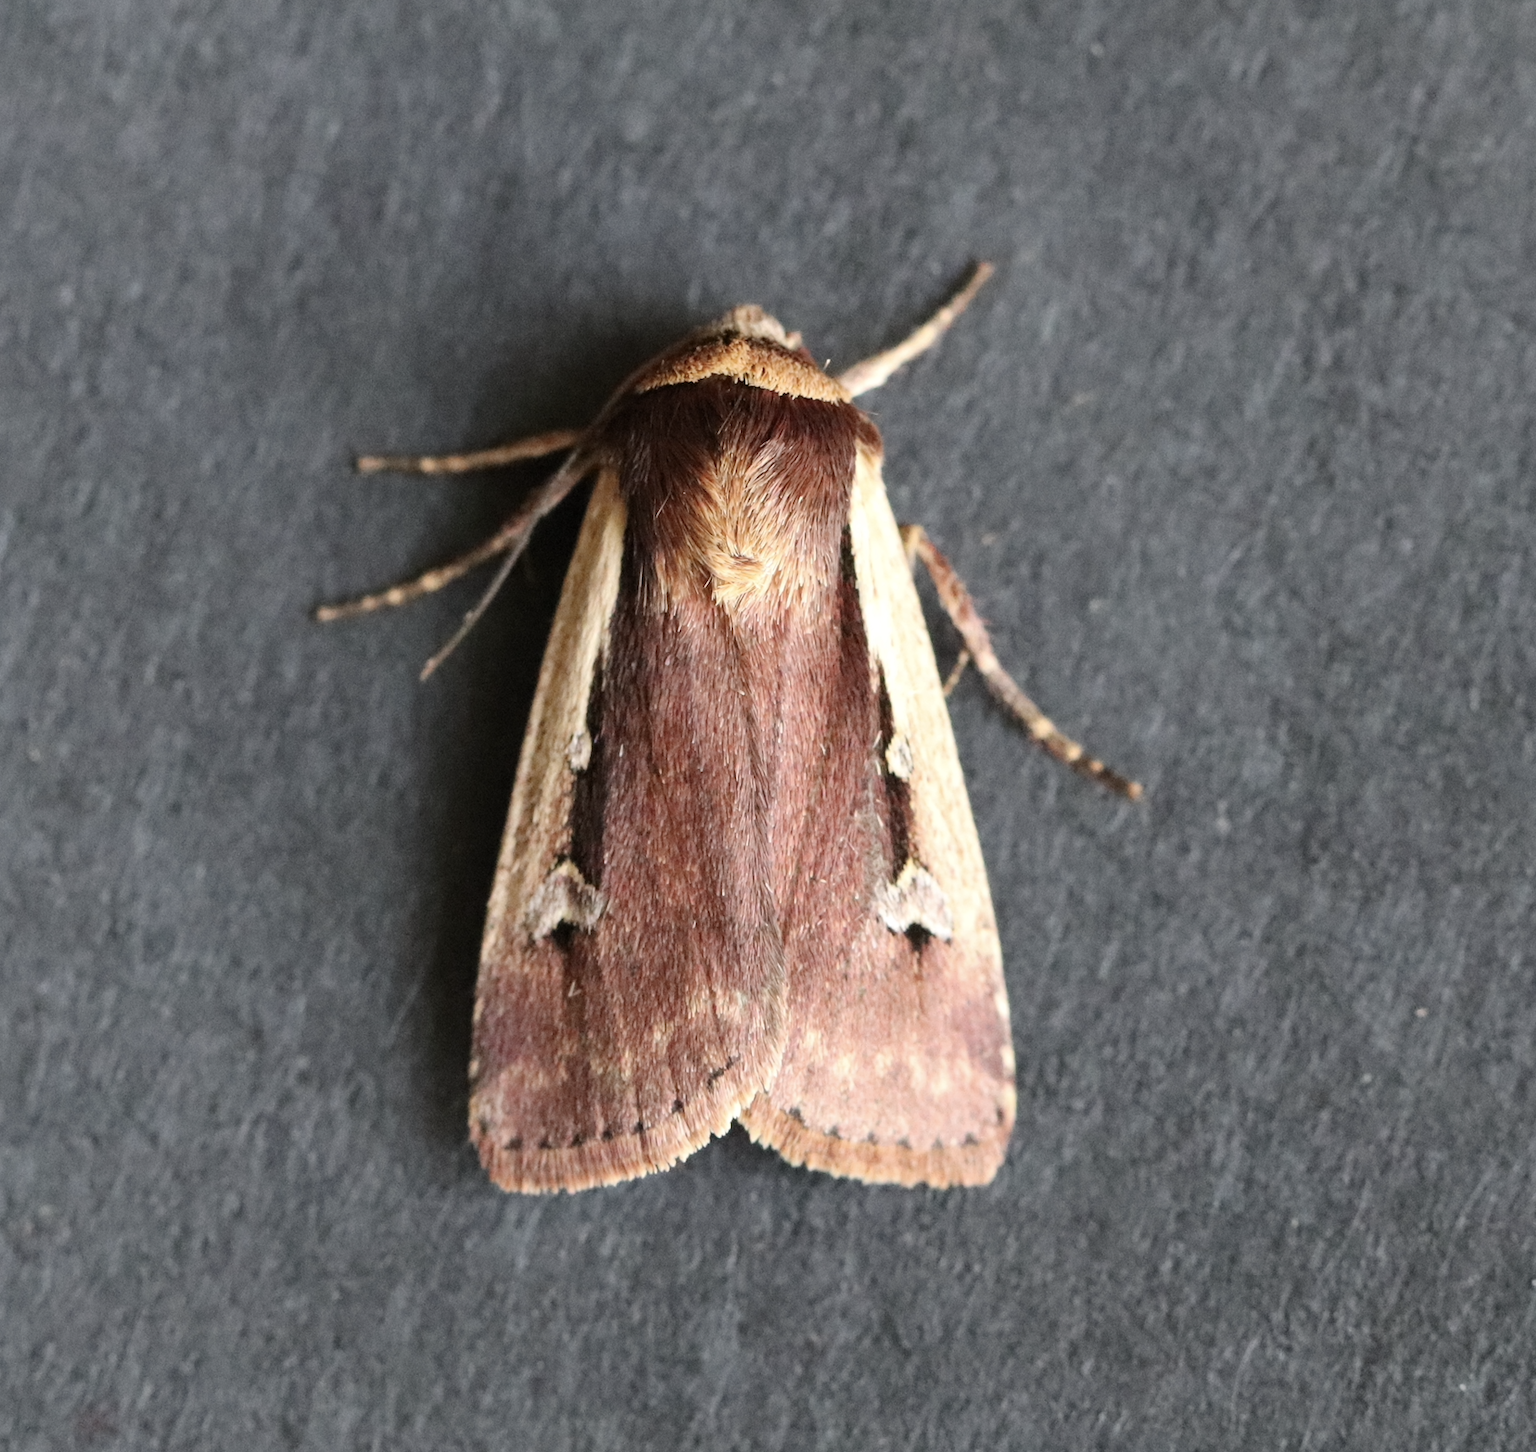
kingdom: Animalia
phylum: Arthropoda
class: Insecta
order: Lepidoptera
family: Noctuidae
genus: Ochropleura
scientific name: Ochropleura plecta
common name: Flame shoulder
